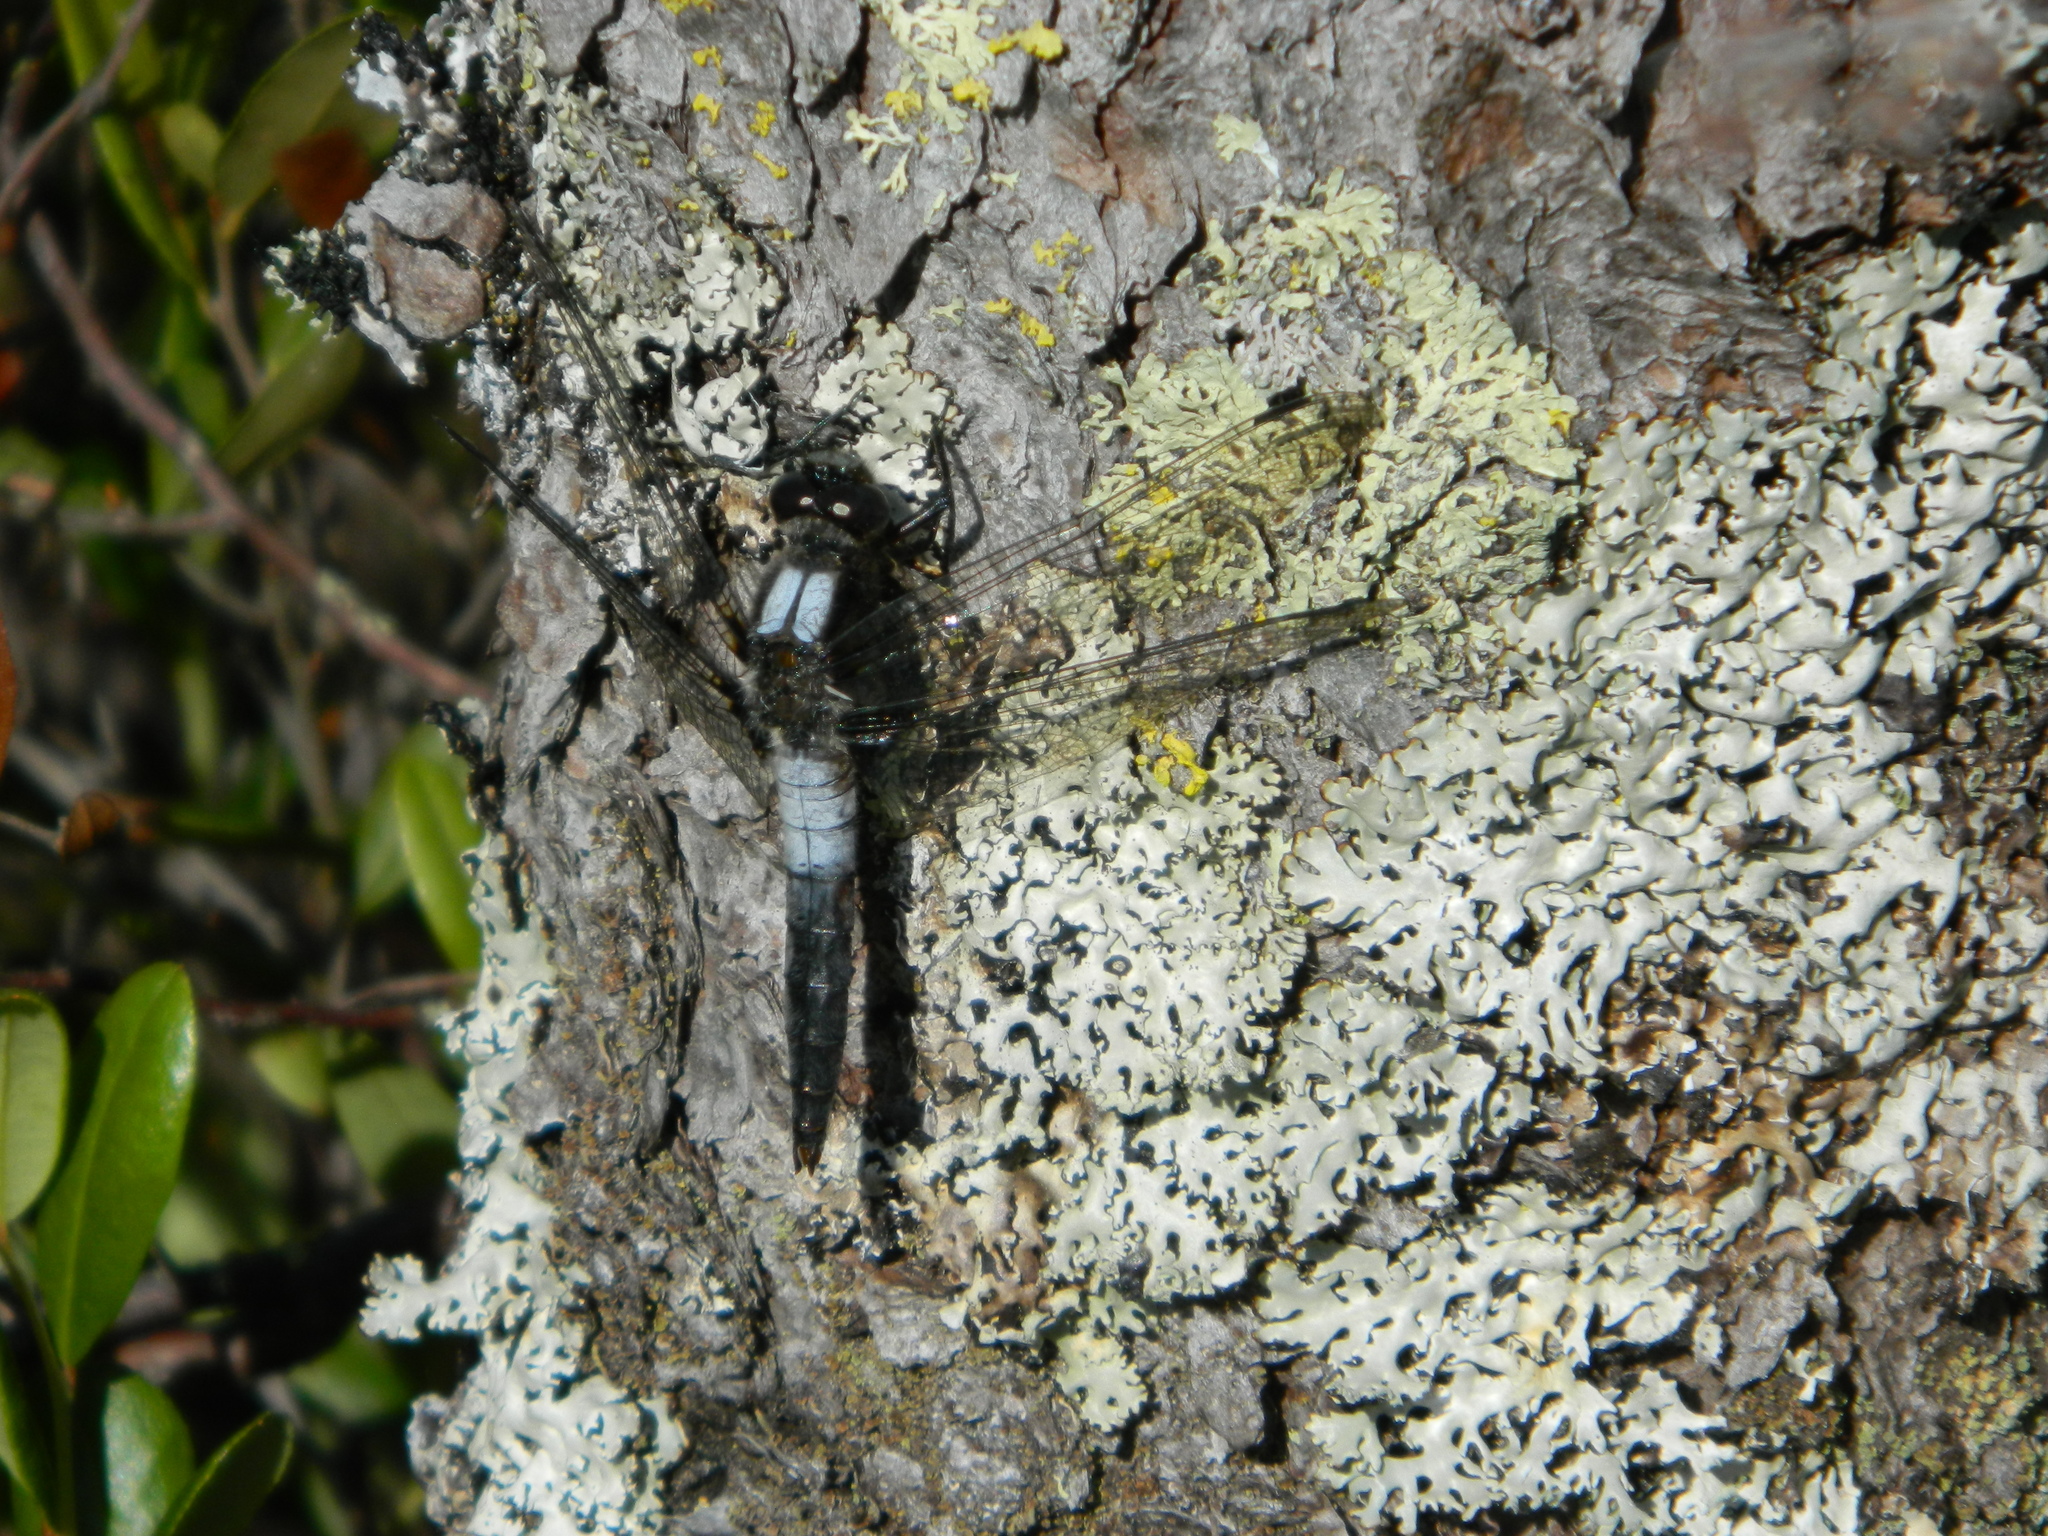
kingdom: Animalia
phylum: Arthropoda
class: Insecta
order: Odonata
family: Libellulidae
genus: Ladona
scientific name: Ladona julia
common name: Chalk-fronted corporal
